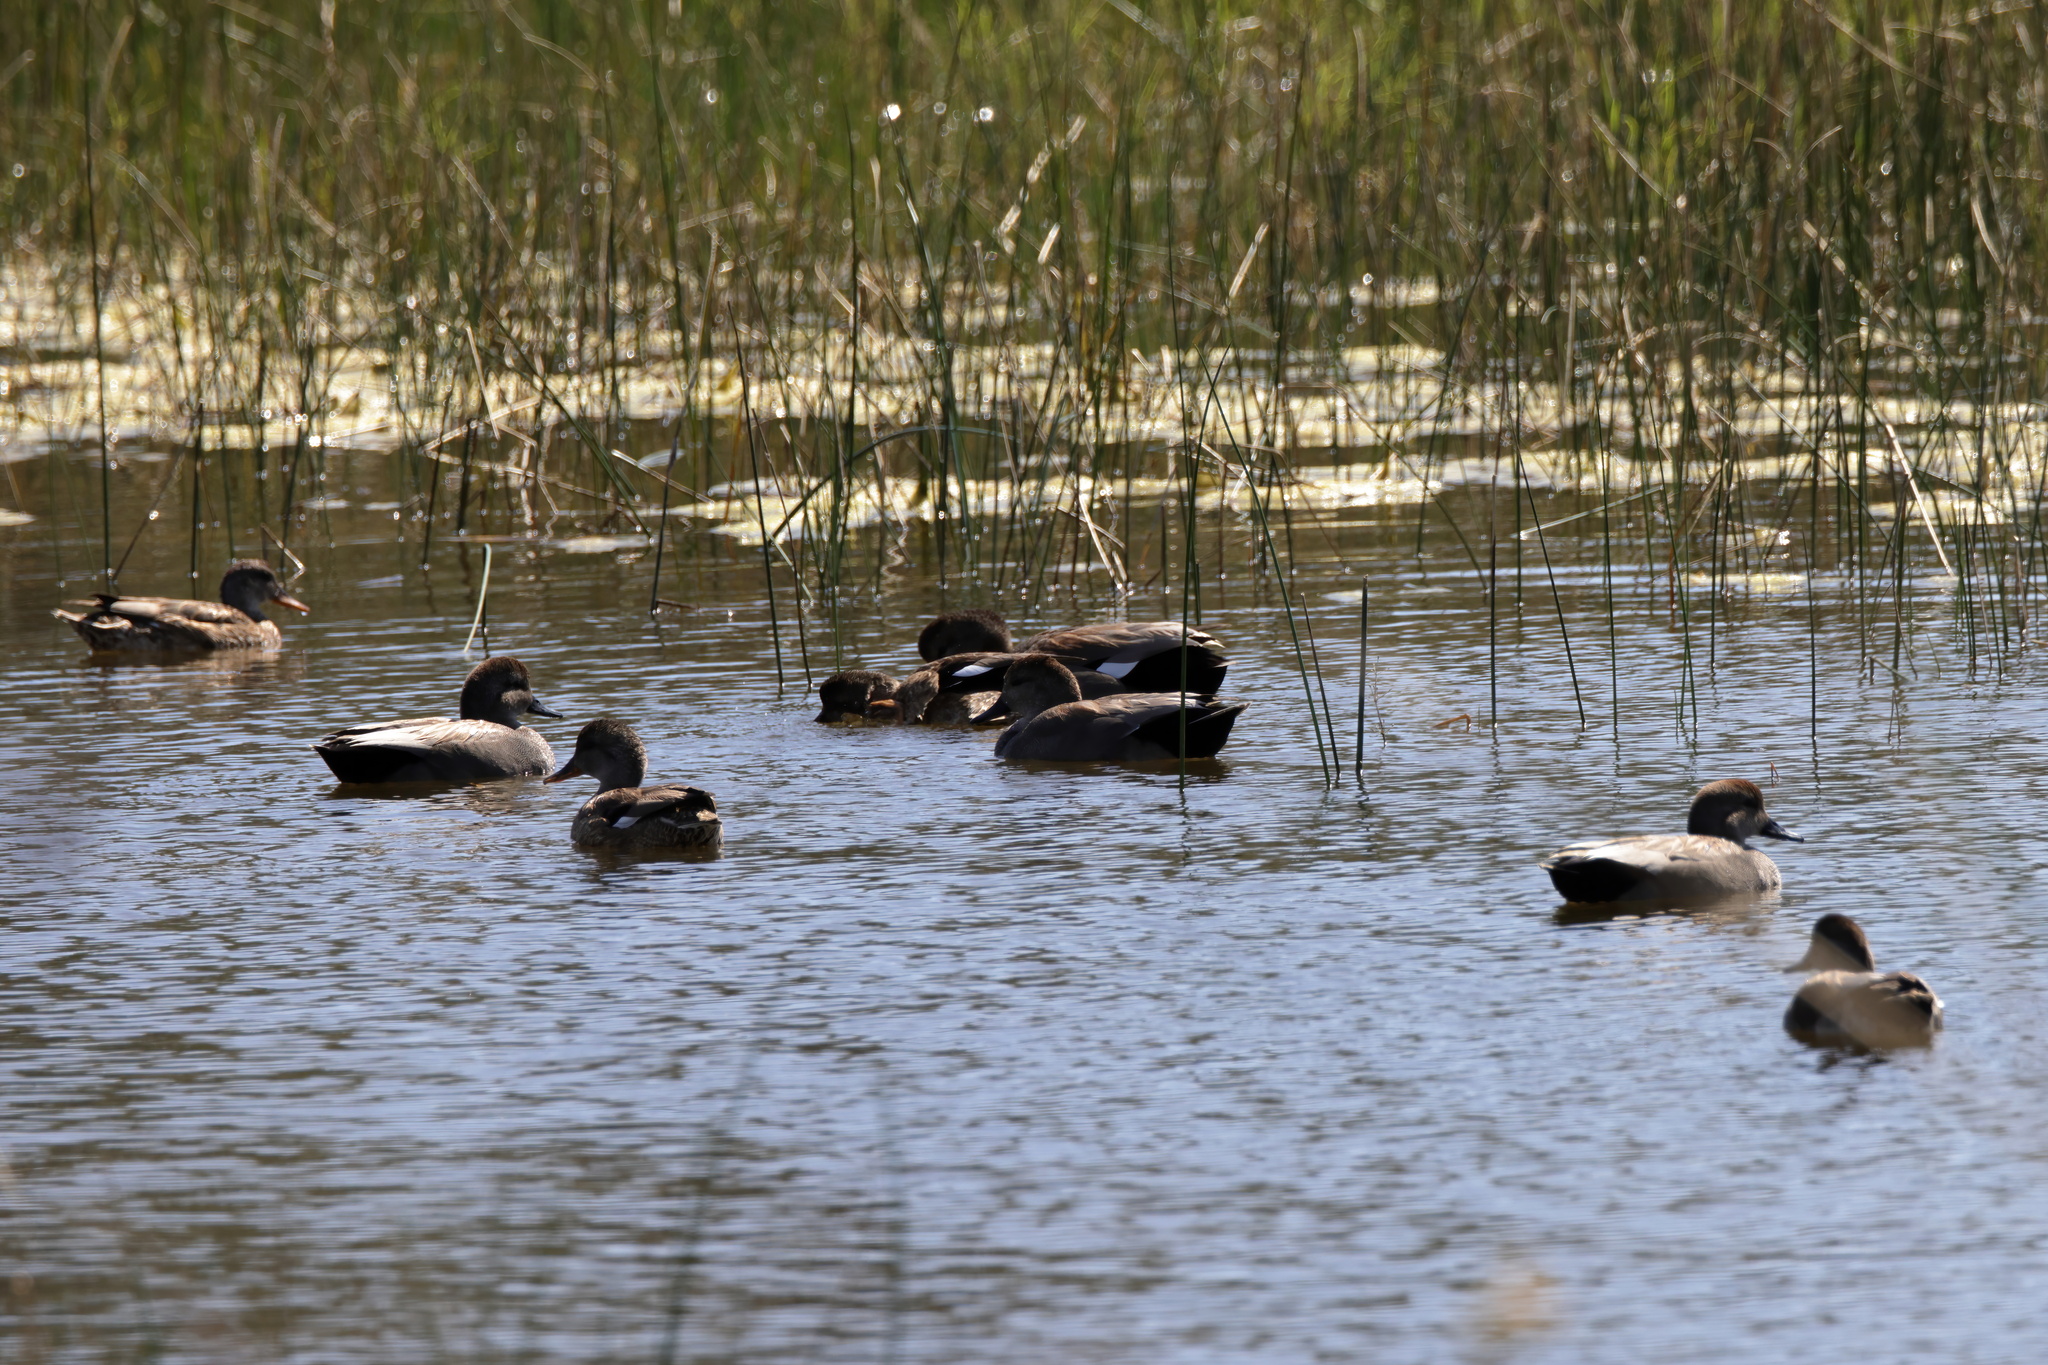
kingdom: Animalia
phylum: Chordata
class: Aves
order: Anseriformes
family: Anatidae
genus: Mareca
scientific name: Mareca strepera
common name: Gadwall
